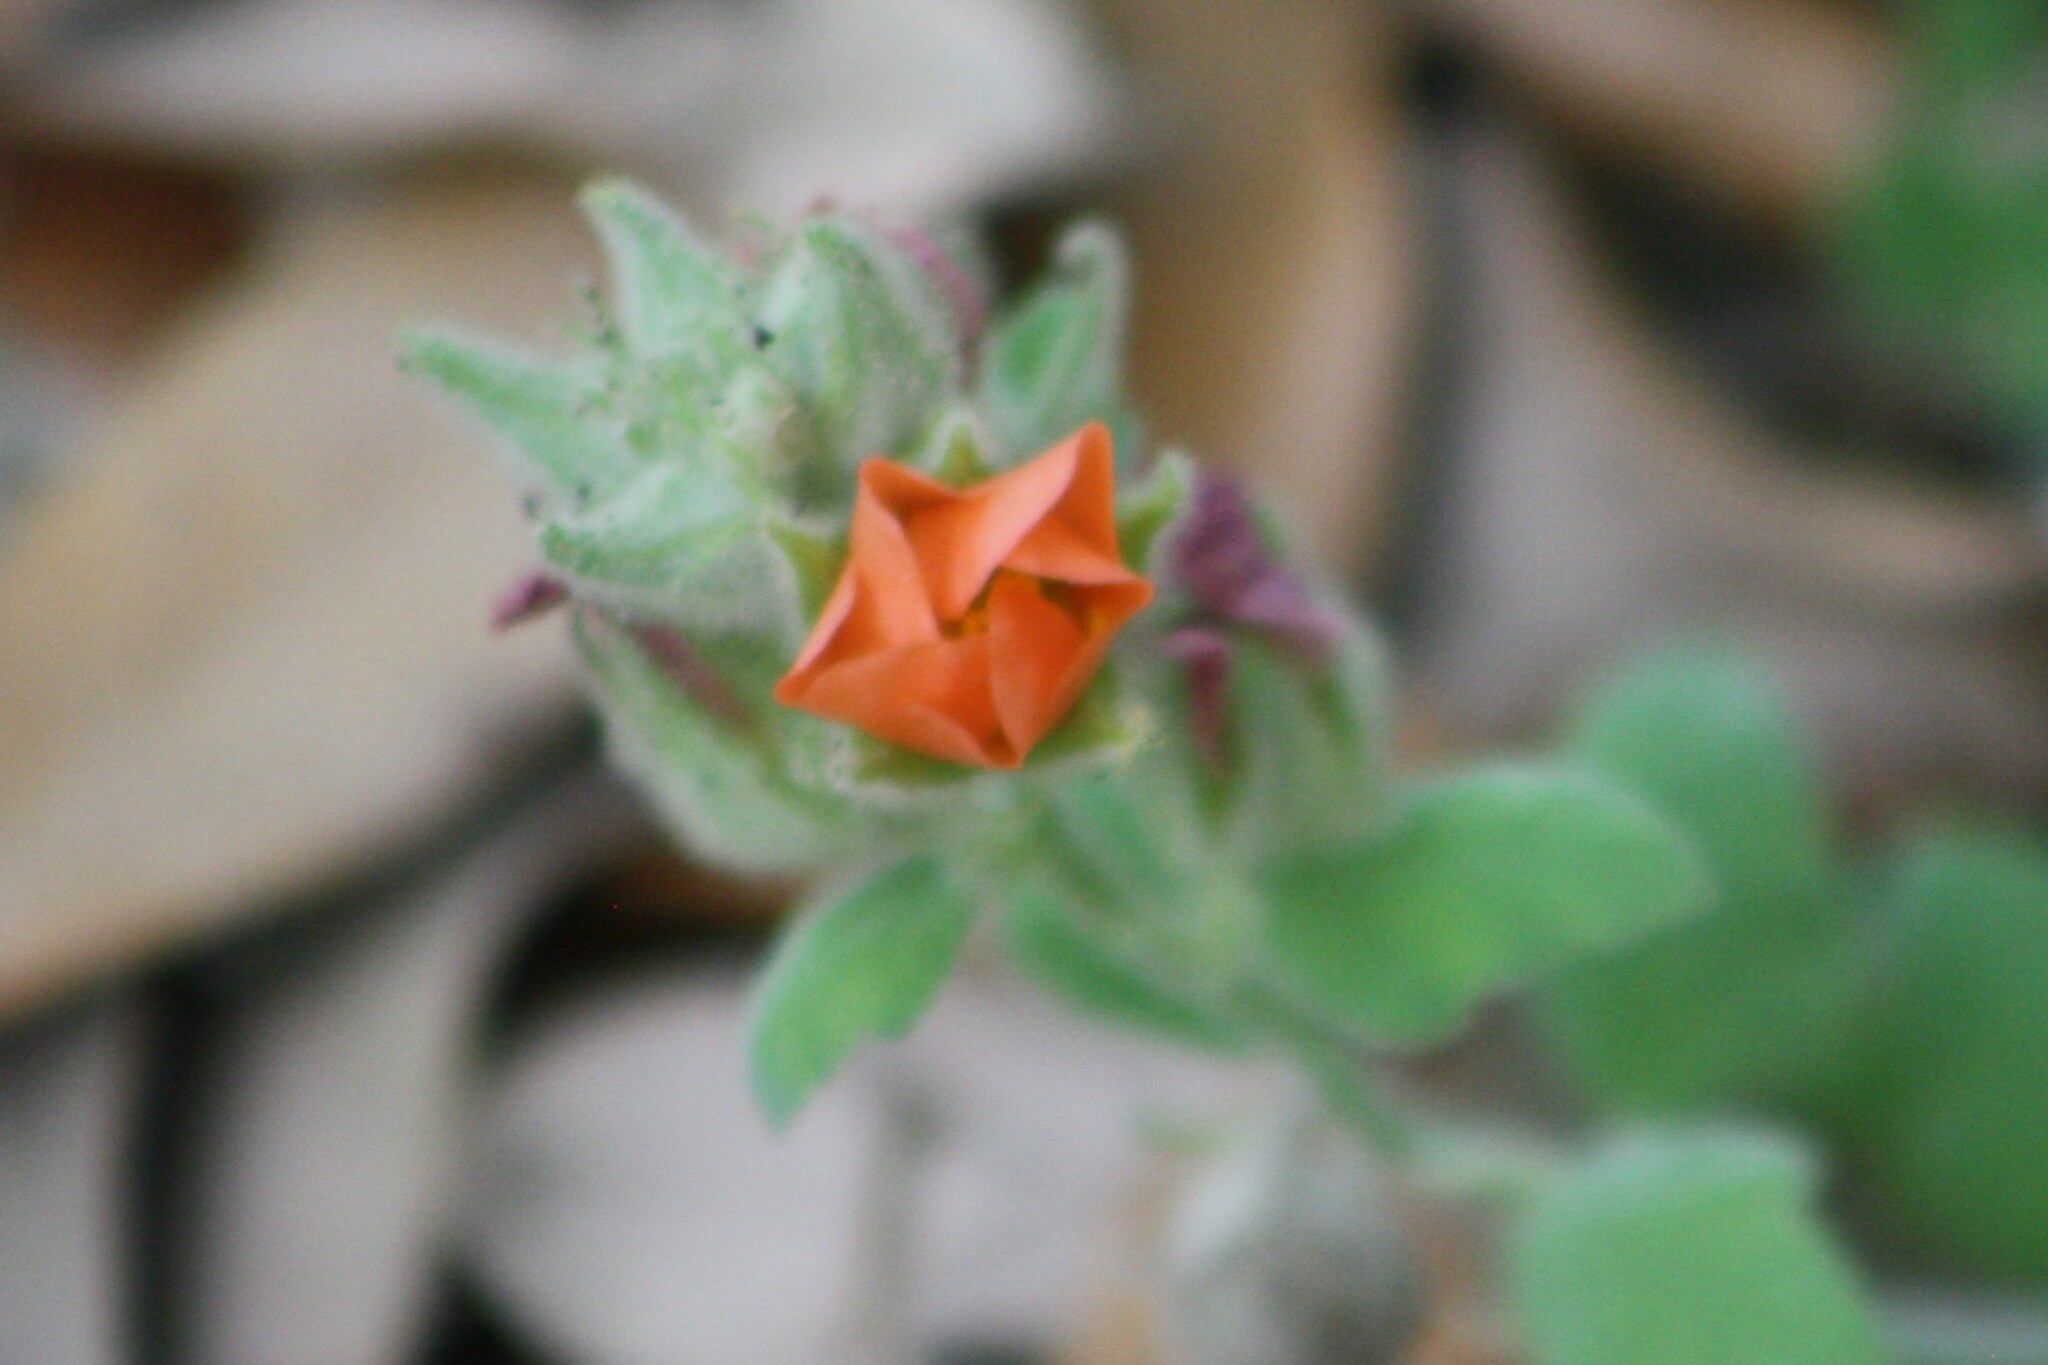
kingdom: Plantae
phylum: Tracheophyta
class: Magnoliopsida
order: Malvales
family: Malvaceae
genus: Sphaeralcea
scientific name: Sphaeralcea lindheimeri
